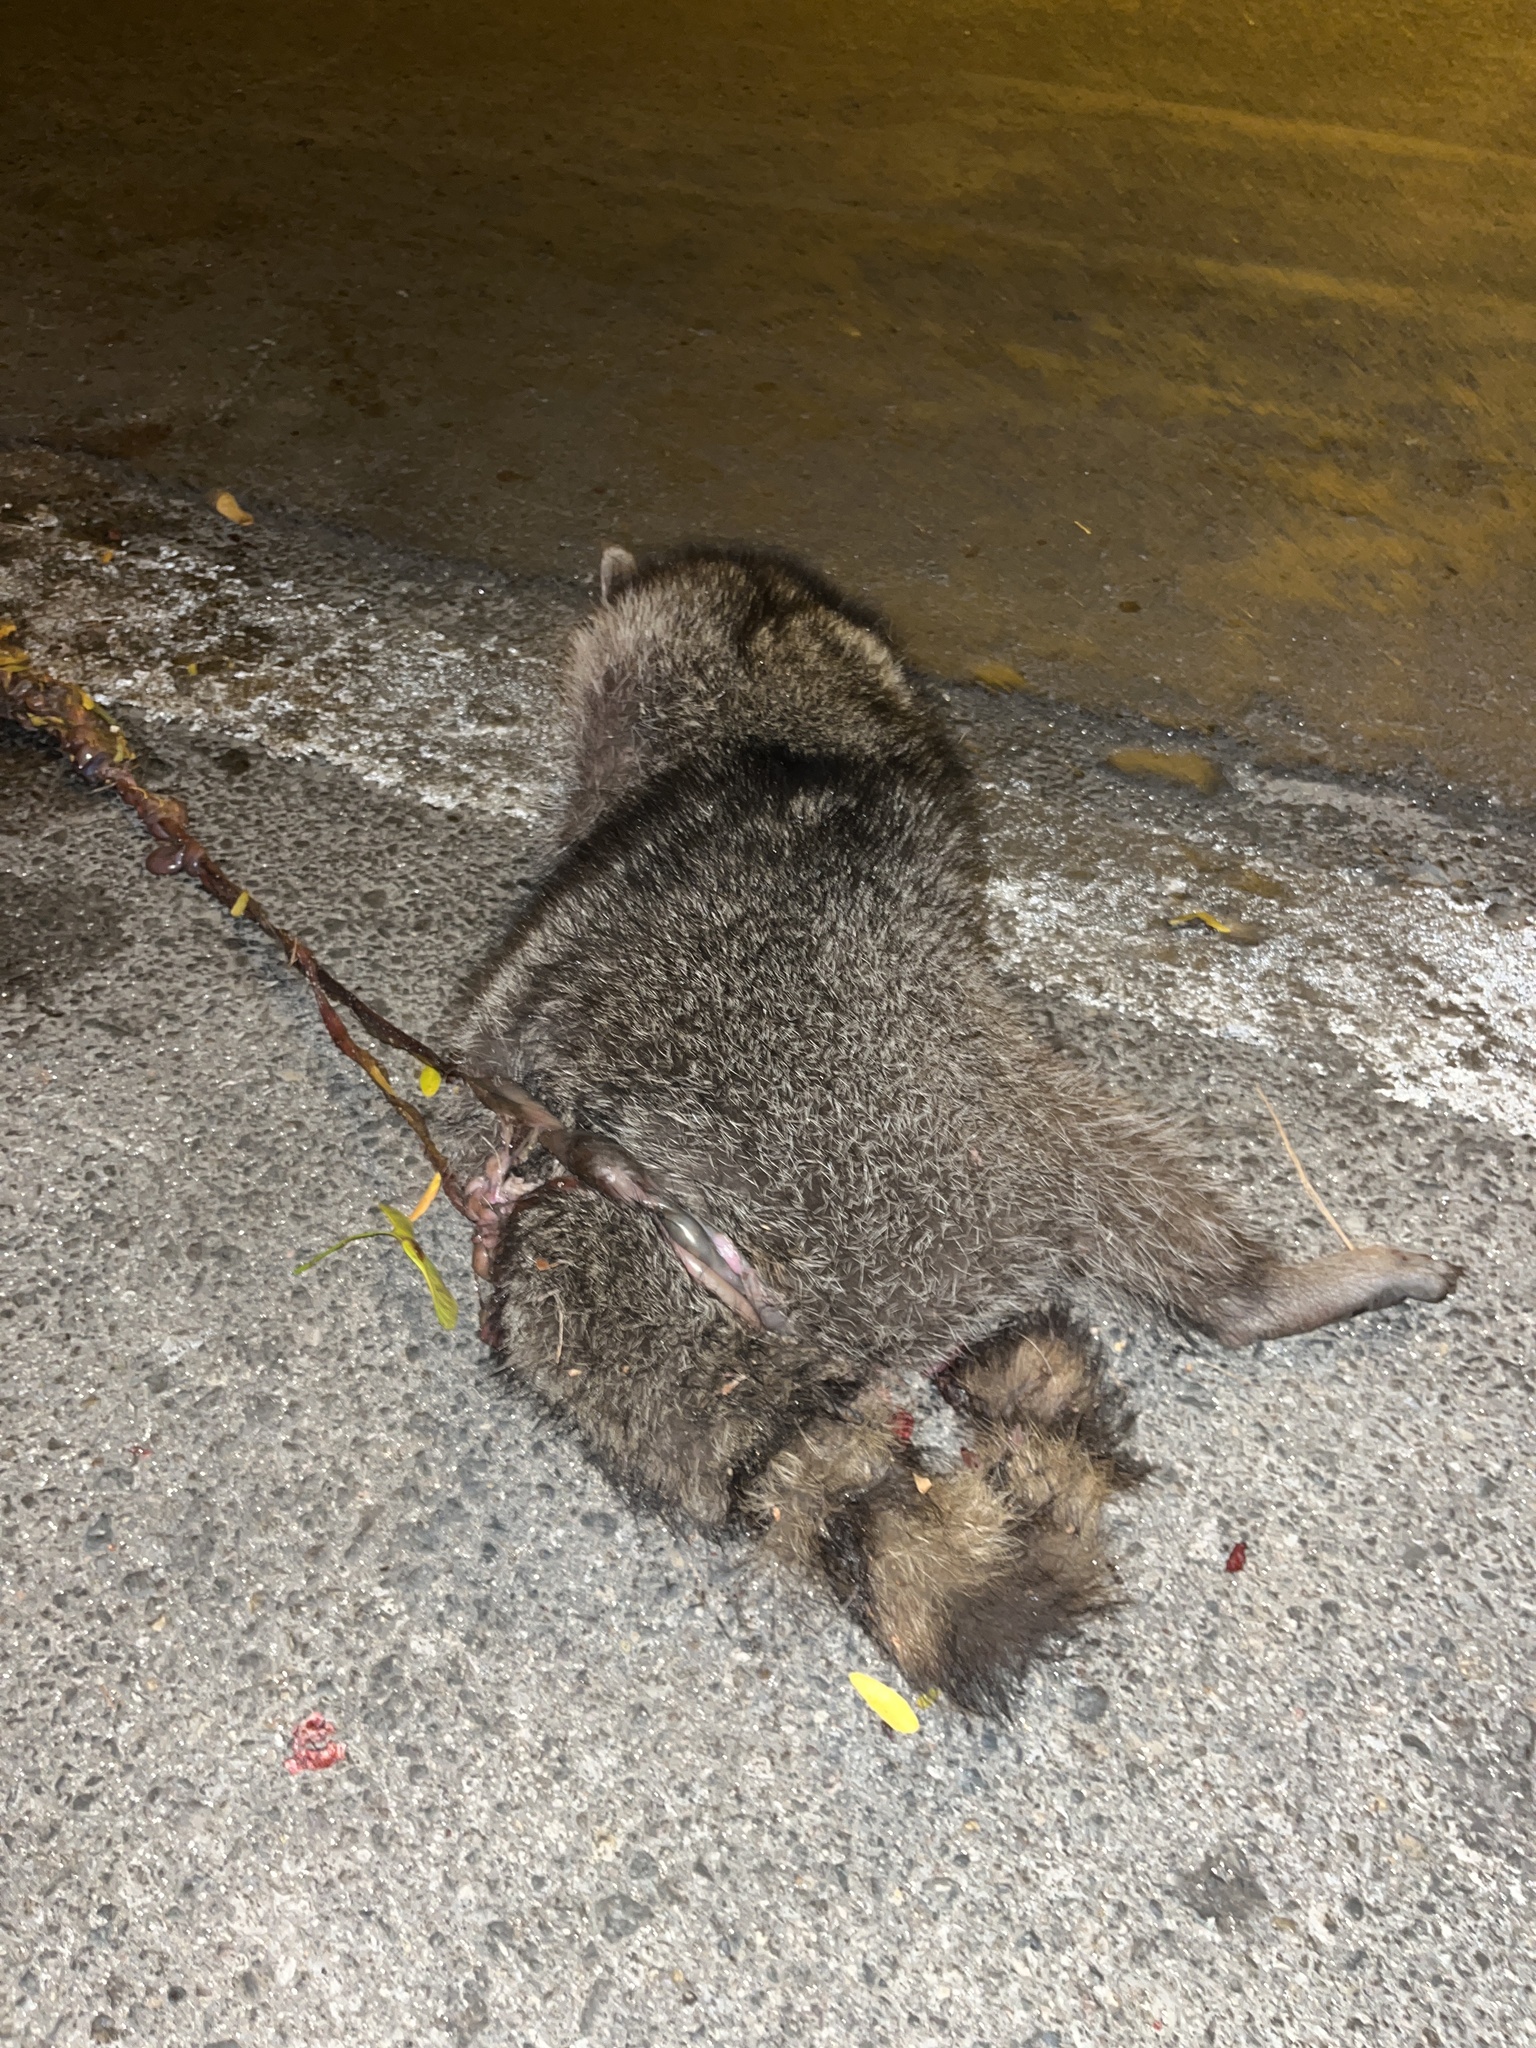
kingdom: Animalia
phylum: Chordata
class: Mammalia
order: Carnivora
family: Procyonidae
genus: Procyon
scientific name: Procyon lotor
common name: Raccoon
